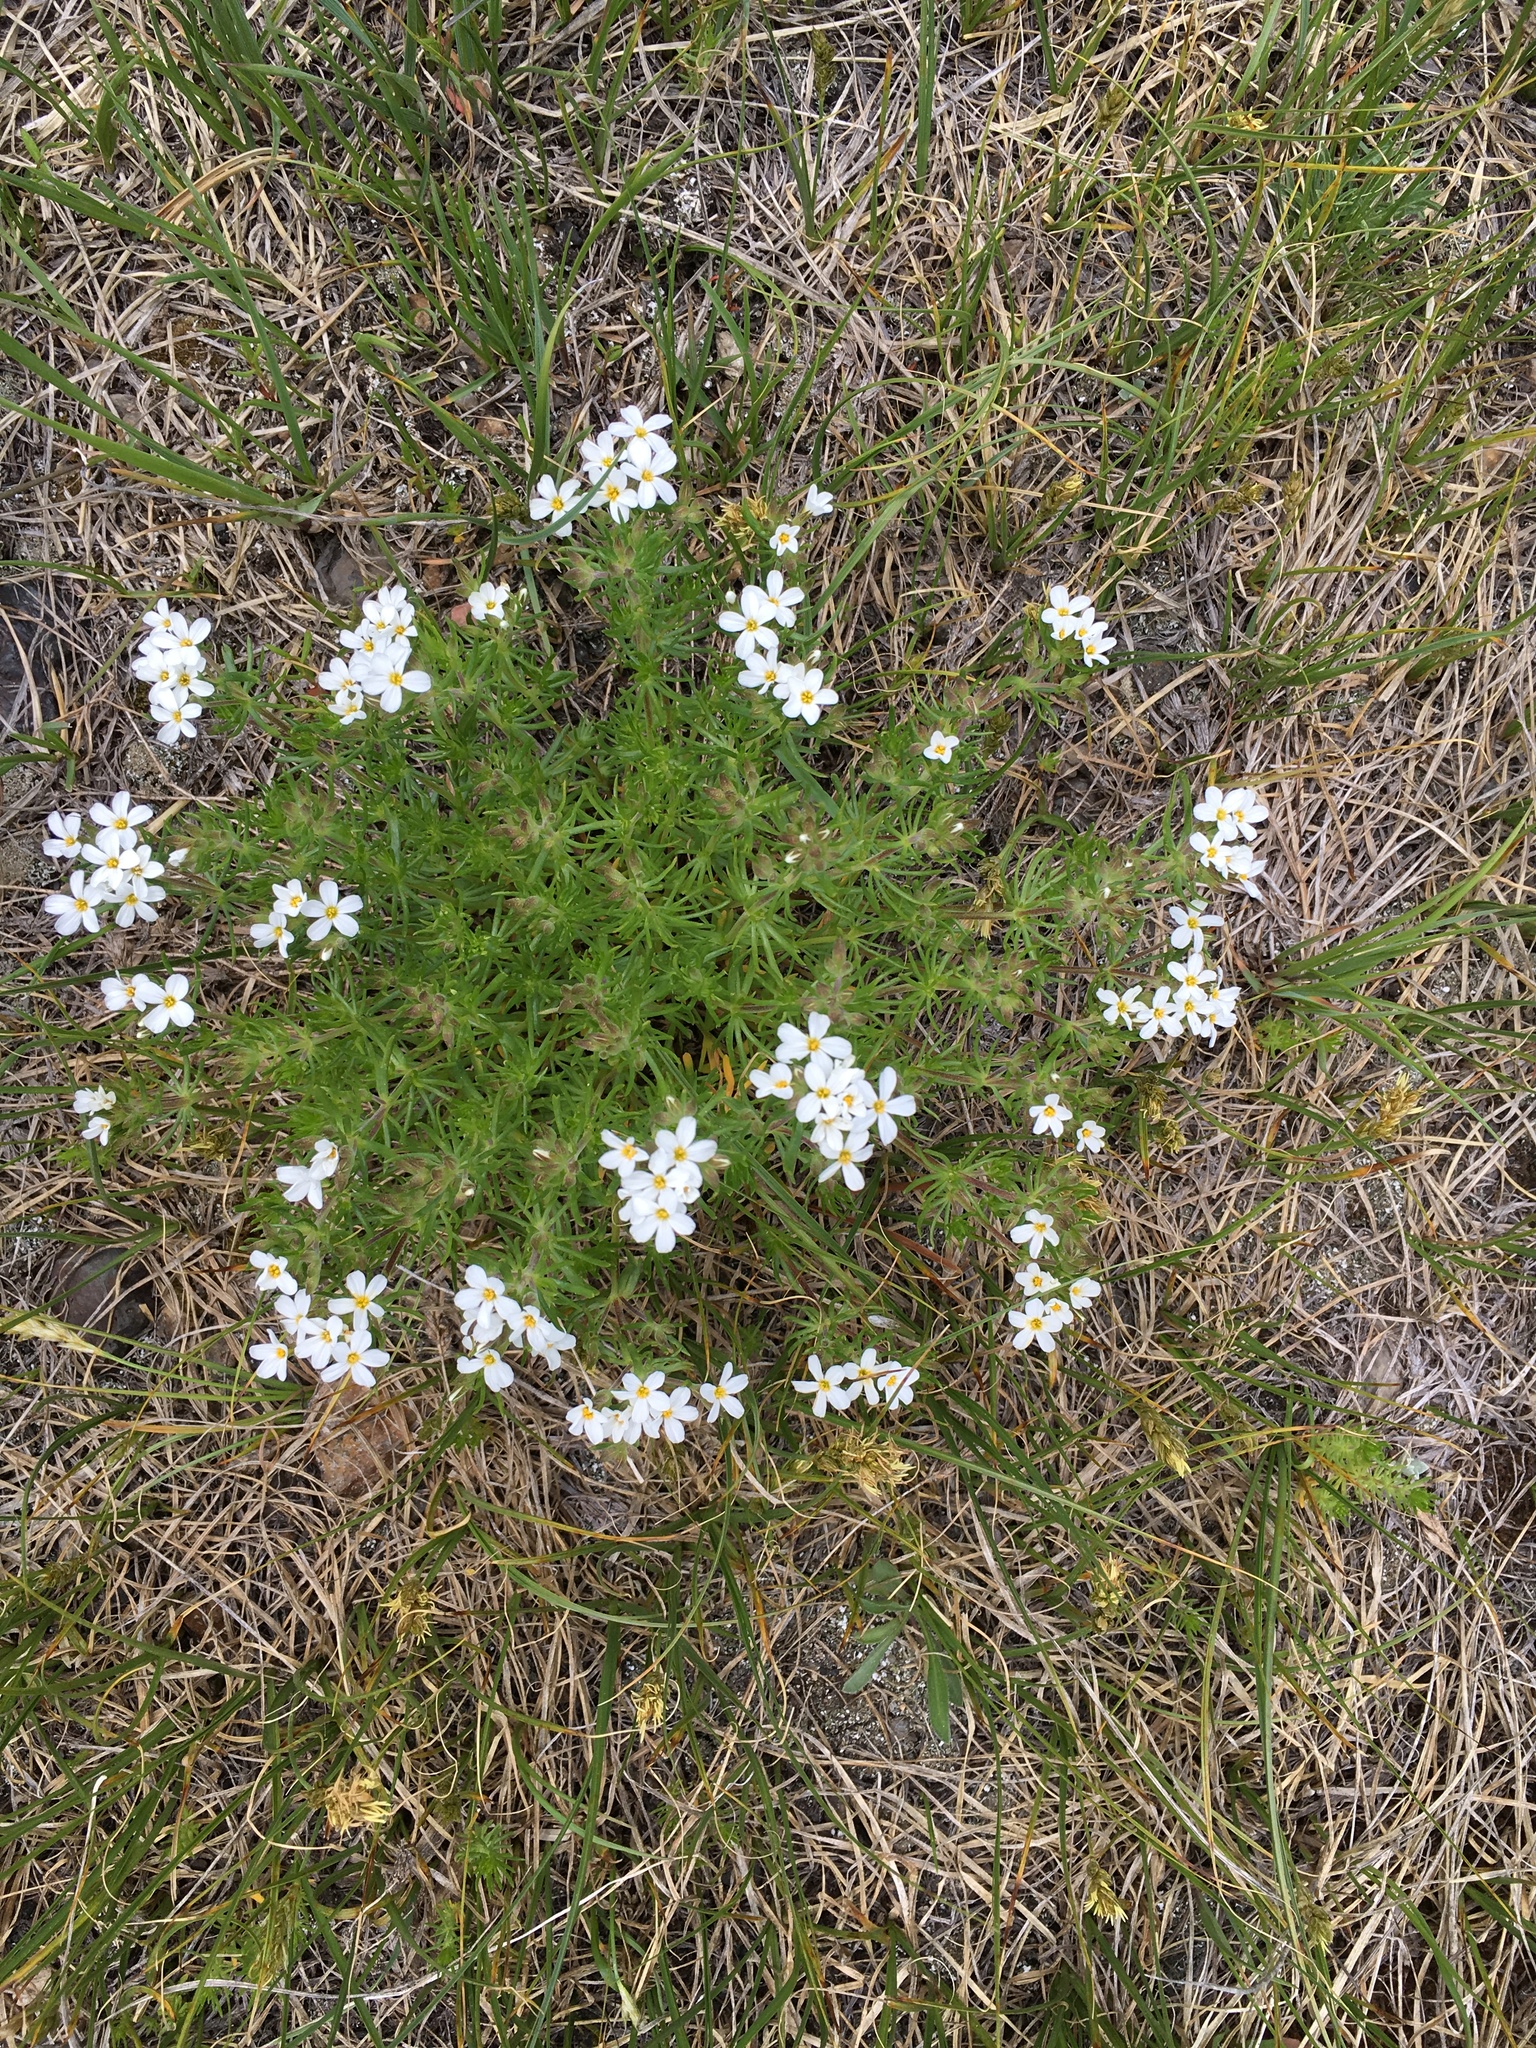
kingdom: Plantae
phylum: Tracheophyta
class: Magnoliopsida
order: Ericales
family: Polemoniaceae
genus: Leptosiphon
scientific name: Leptosiphon nuttallii
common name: Nuttall's linanthus
